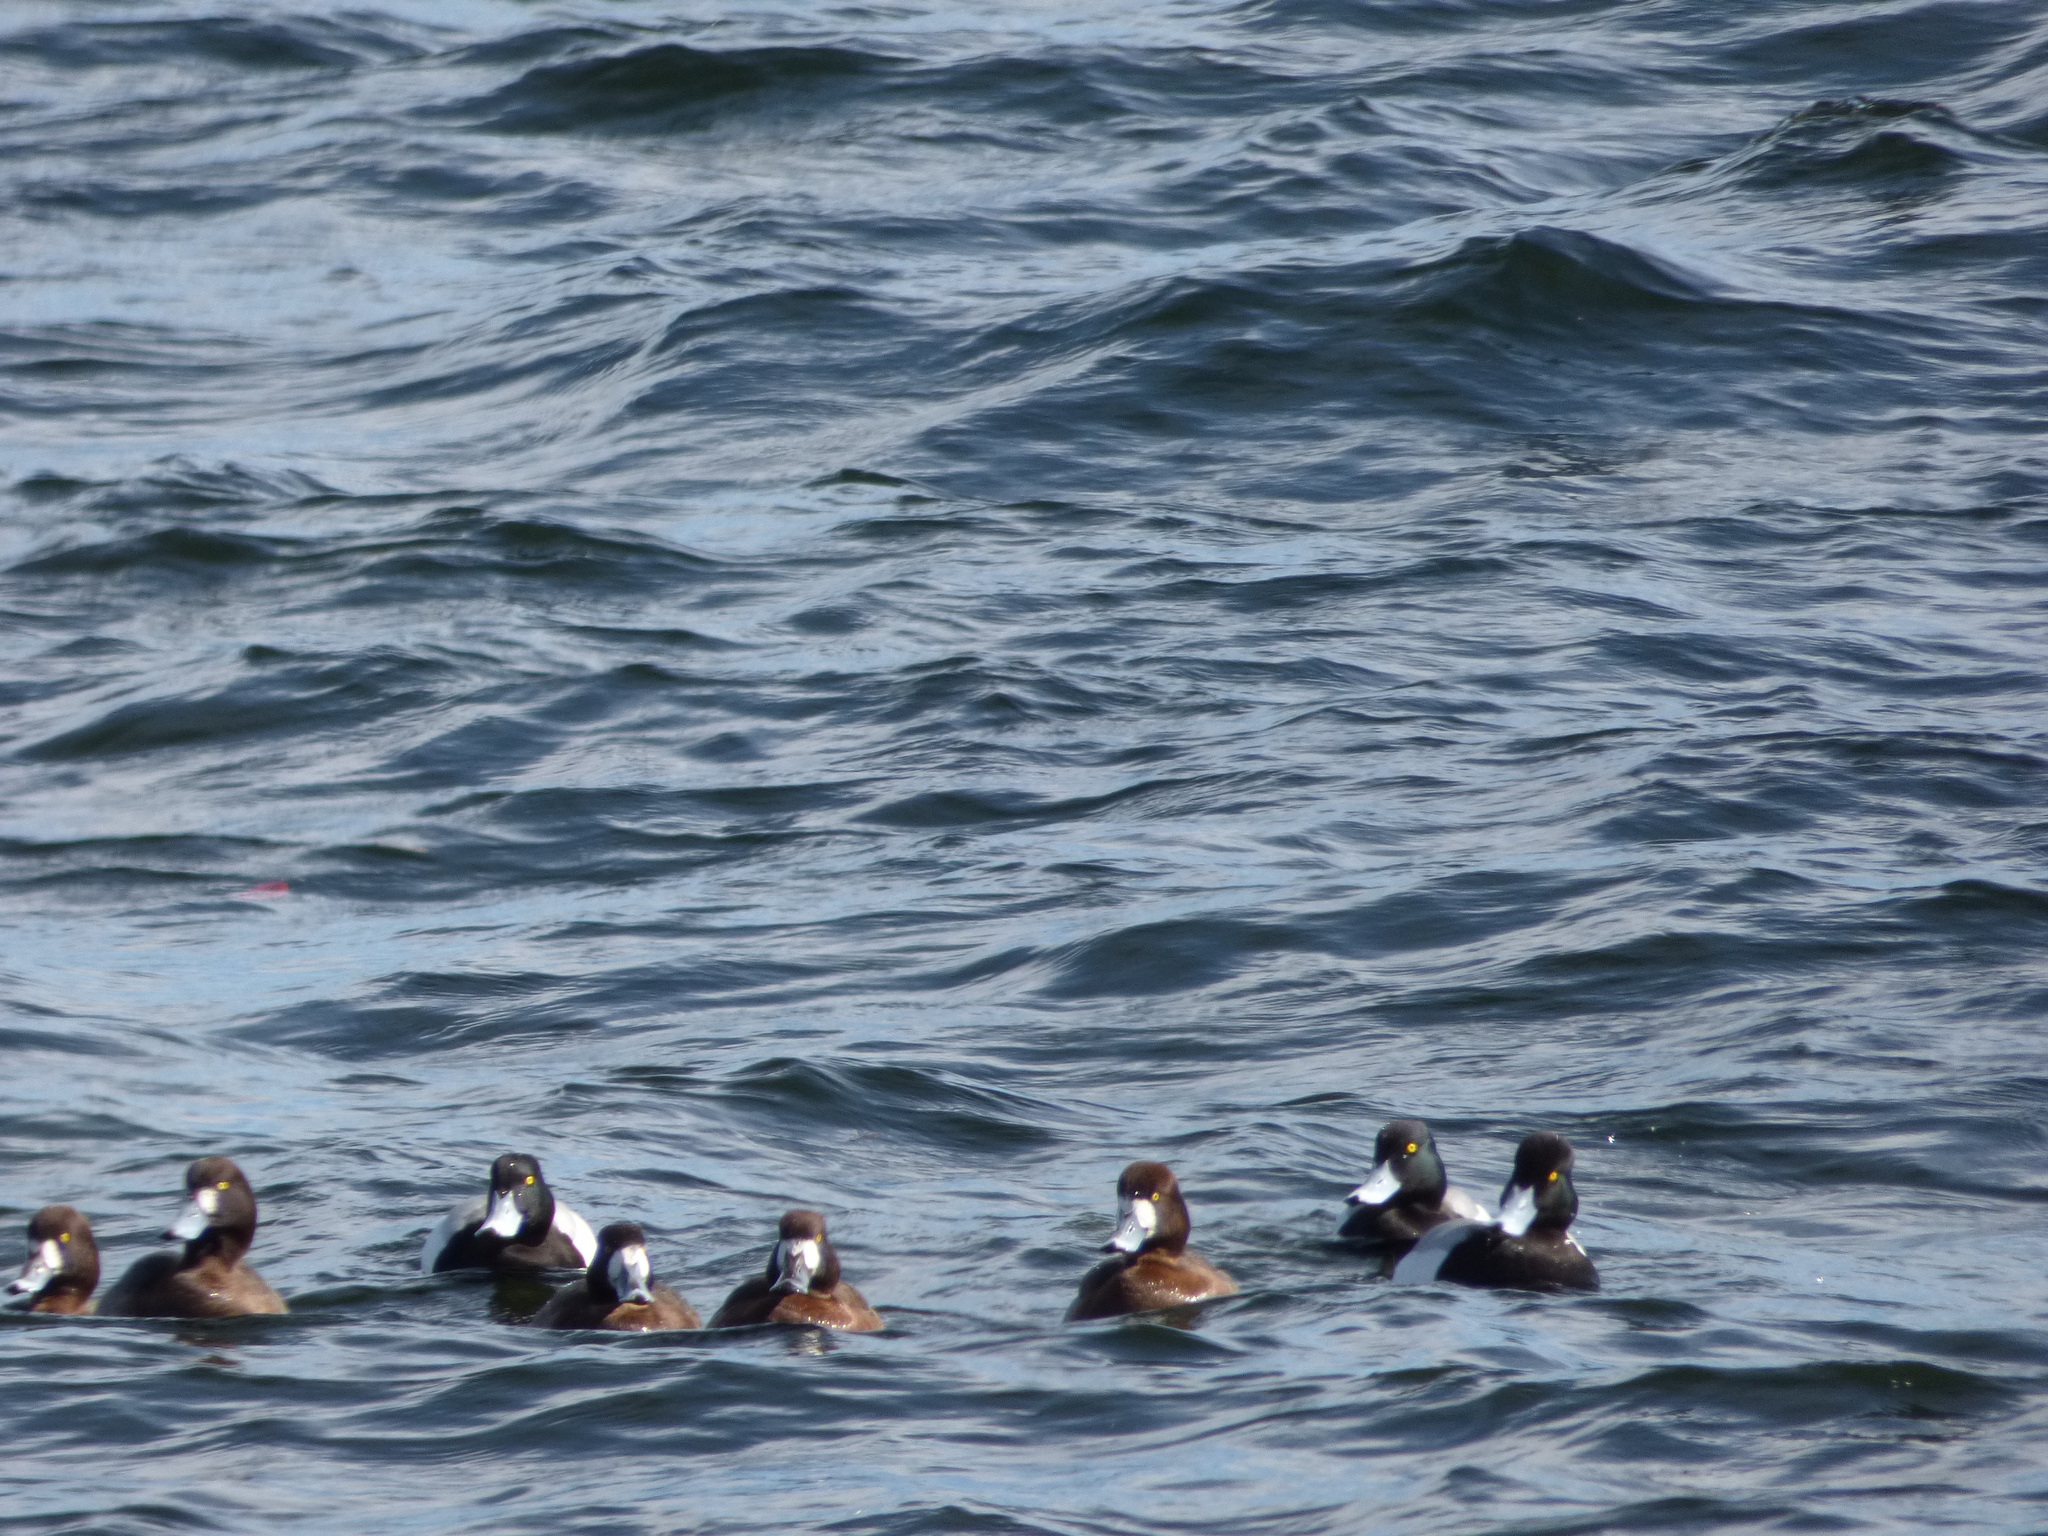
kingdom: Animalia
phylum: Chordata
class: Aves
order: Anseriformes
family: Anatidae
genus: Aythya
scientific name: Aythya marila
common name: Greater scaup
